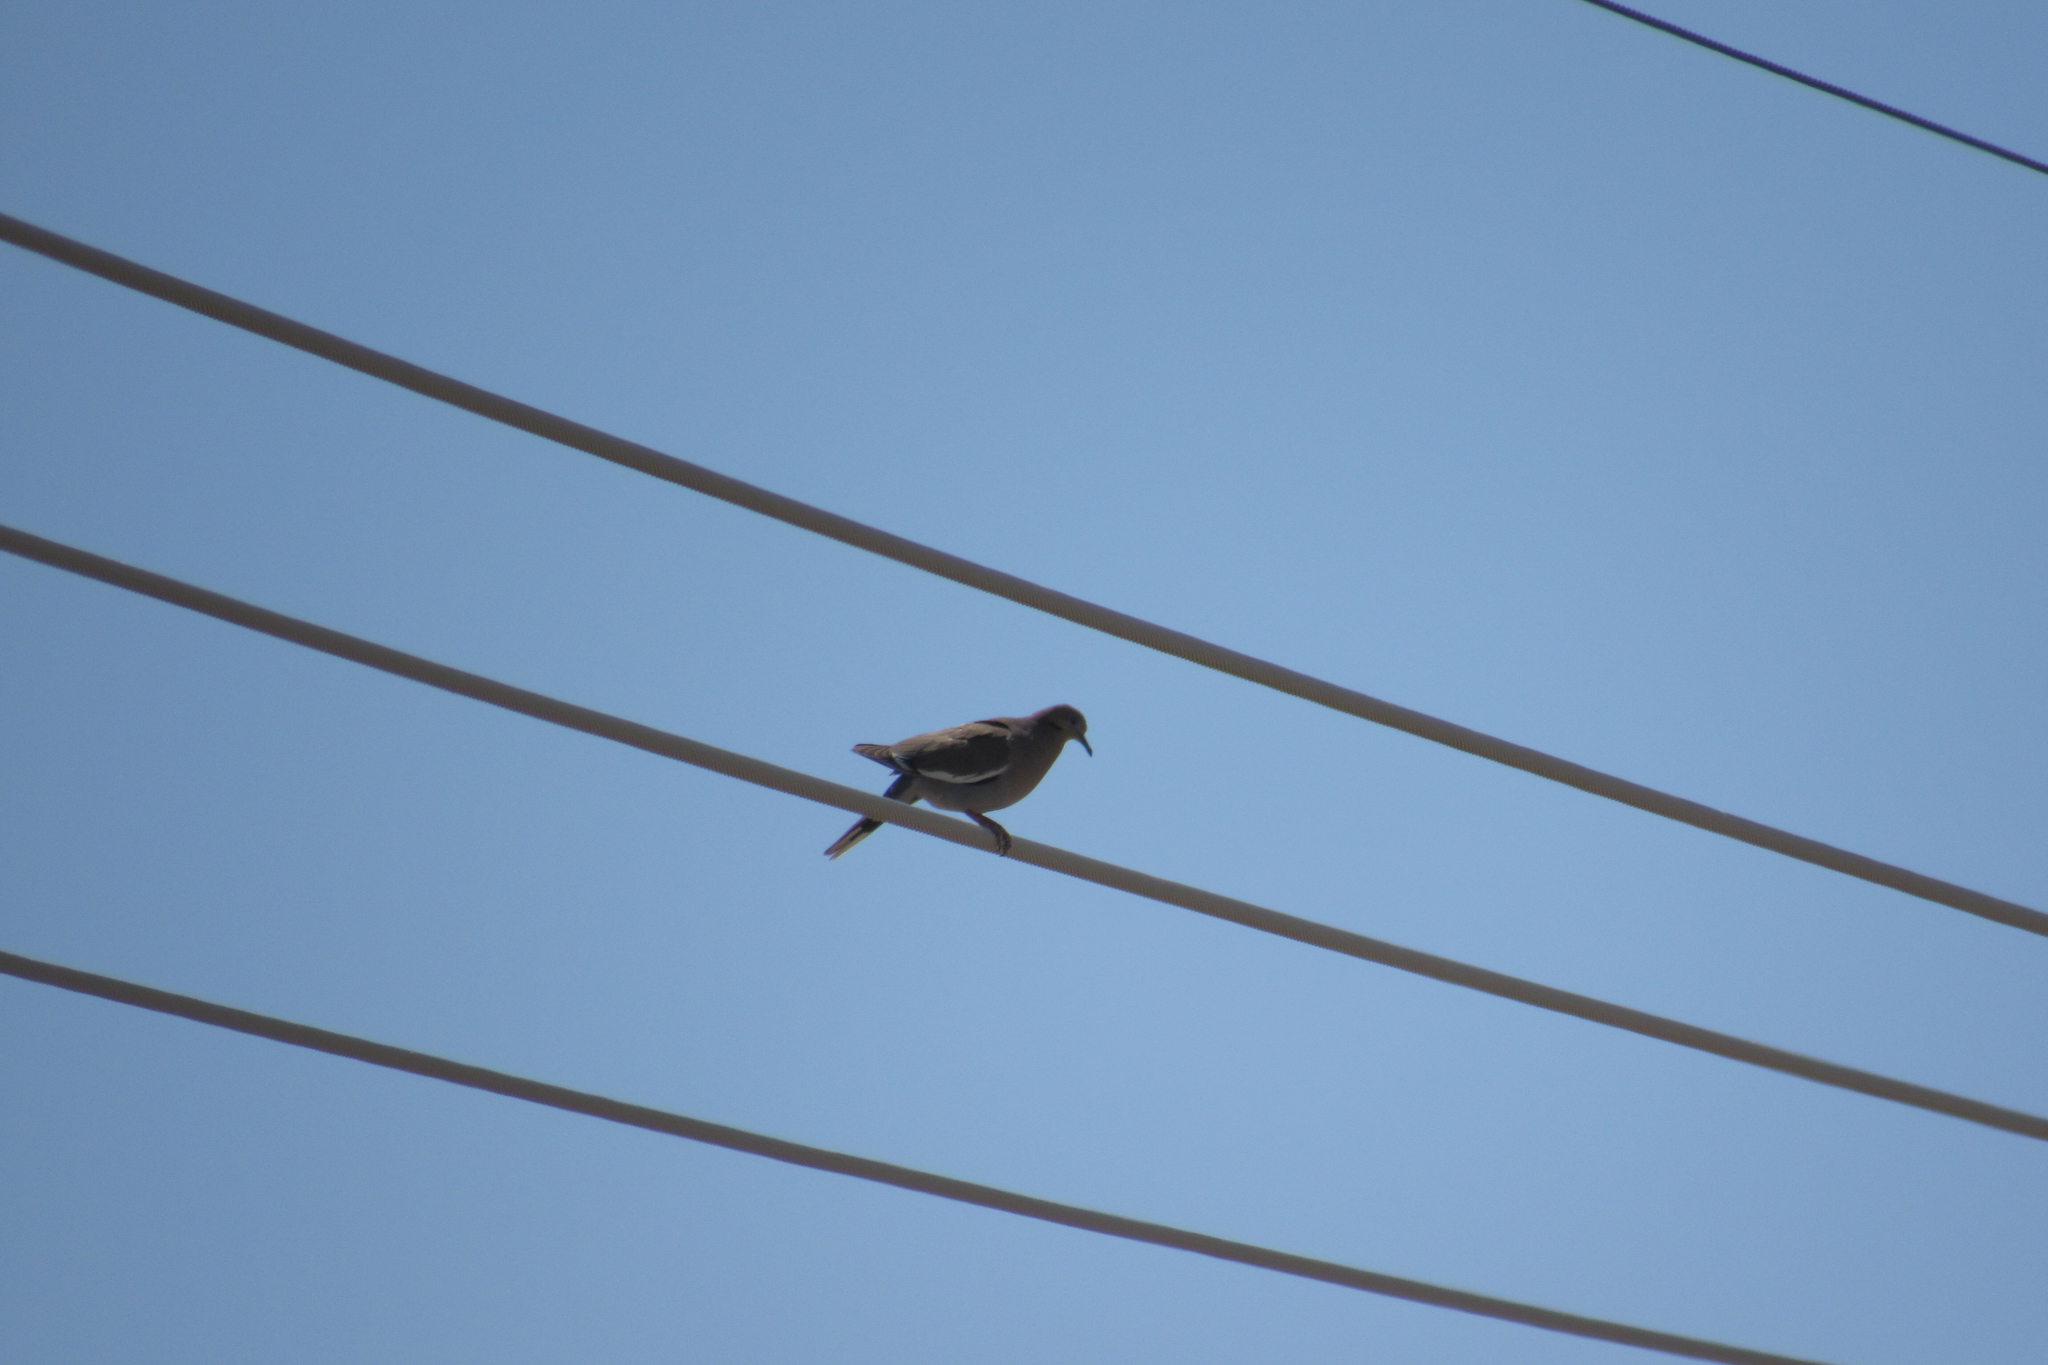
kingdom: Animalia
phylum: Chordata
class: Aves
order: Columbiformes
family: Columbidae
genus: Zenaida
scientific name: Zenaida asiatica
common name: White-winged dove
